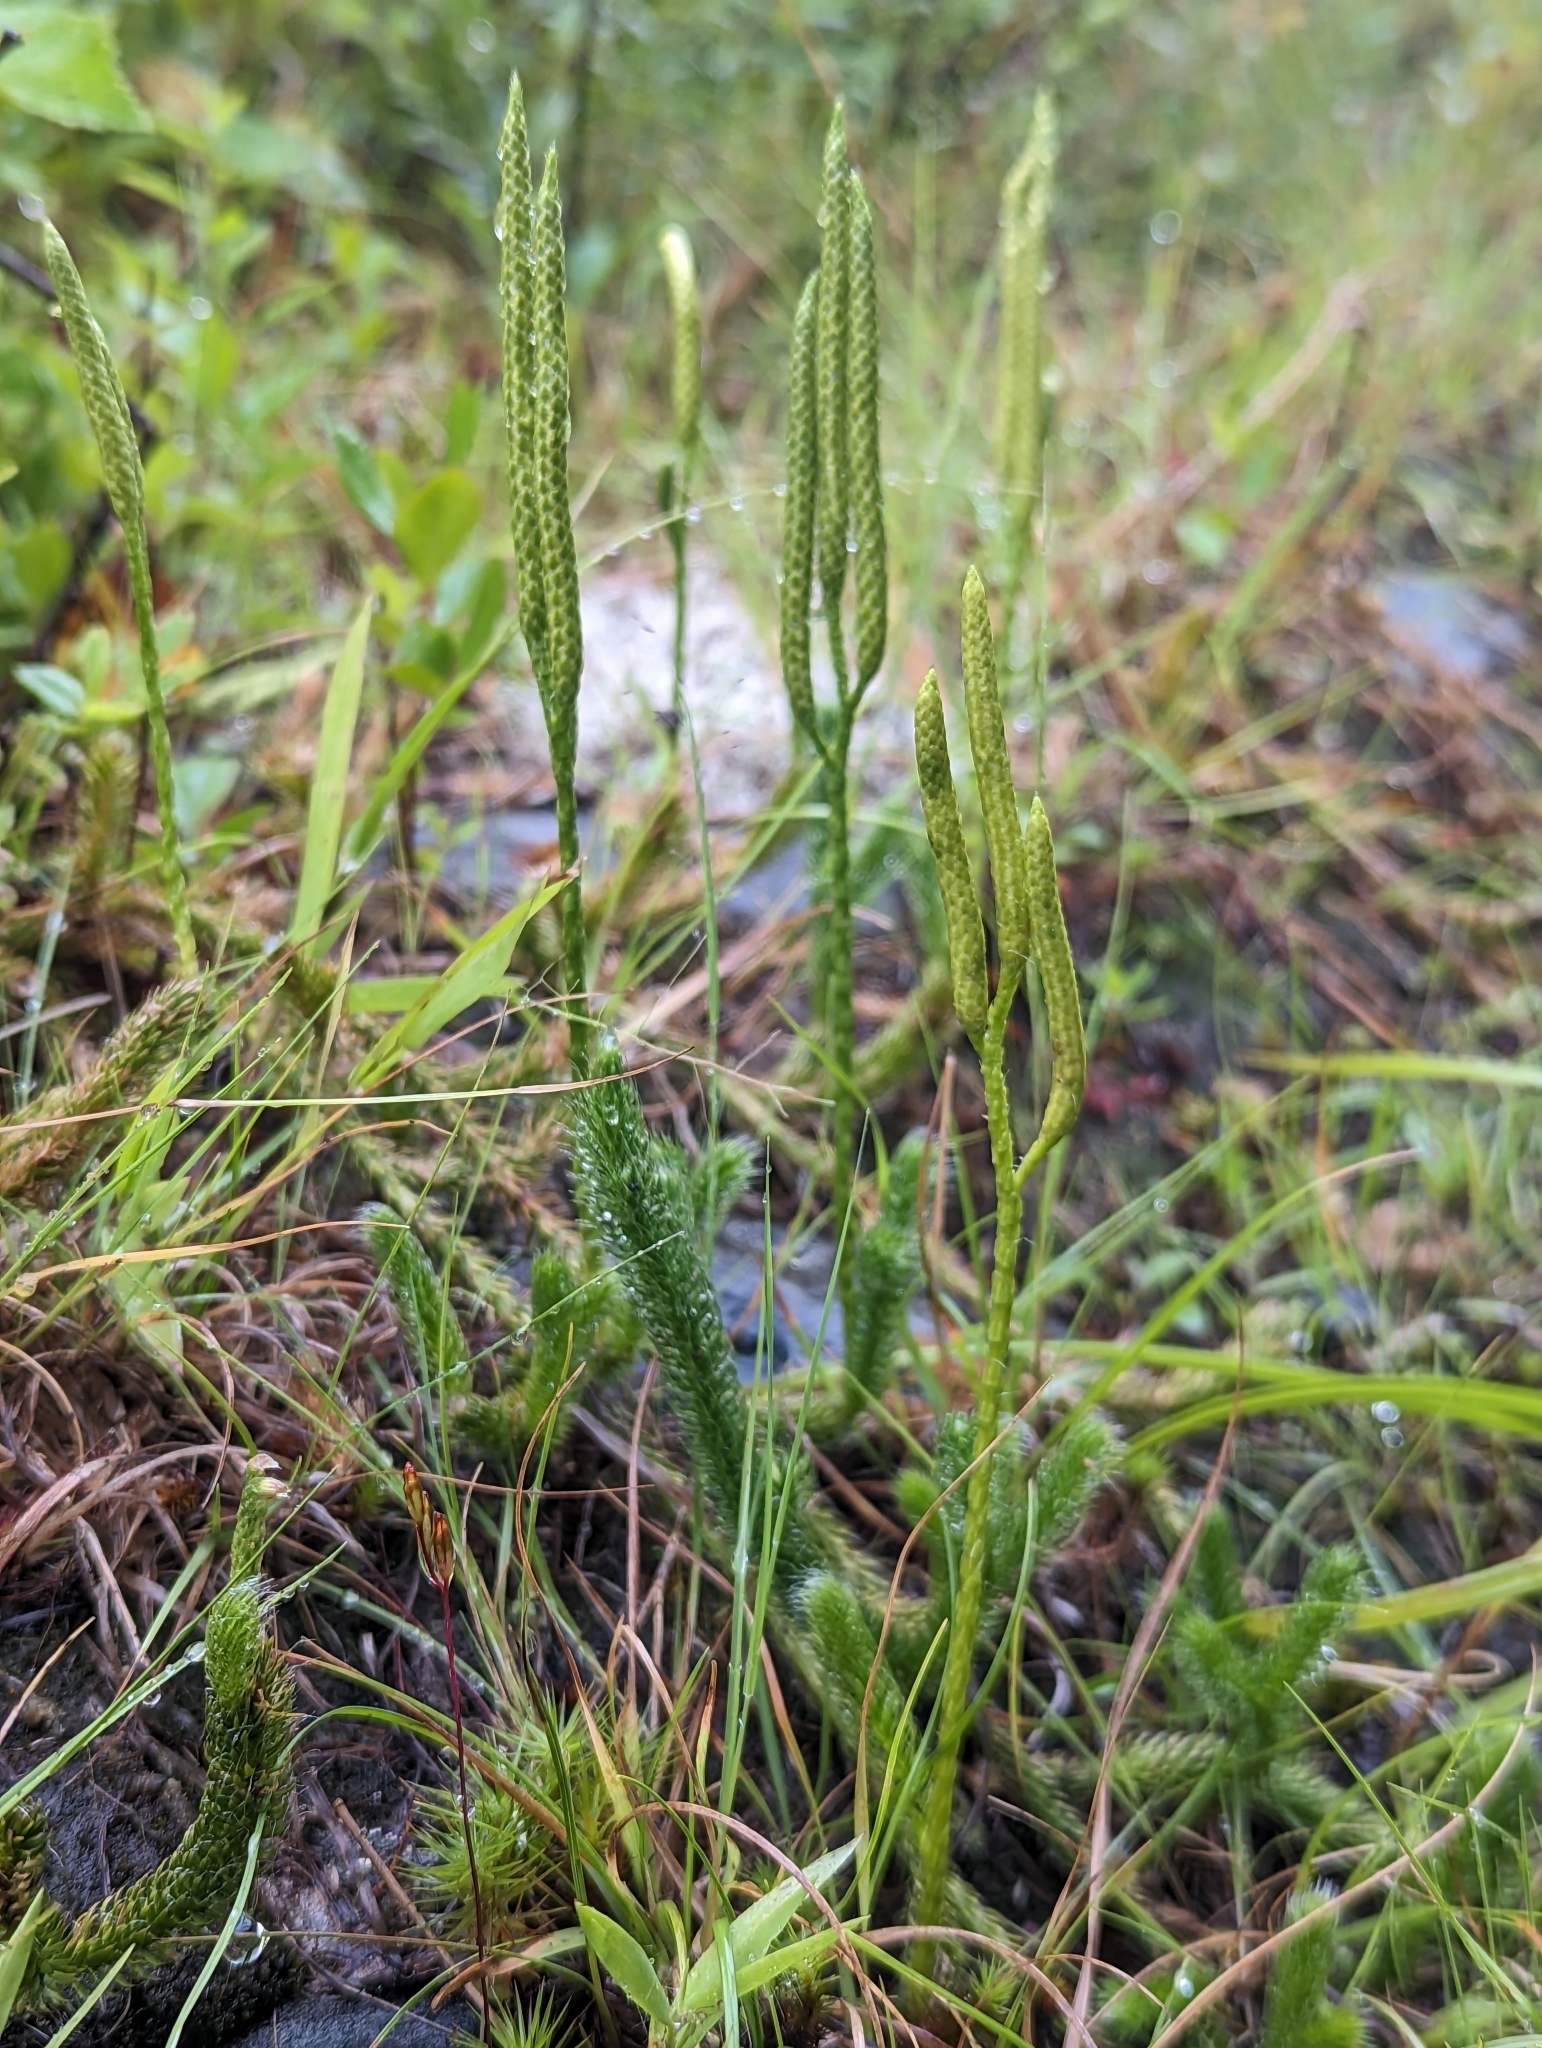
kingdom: Plantae
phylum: Tracheophyta
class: Lycopodiopsida
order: Lycopodiales
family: Lycopodiaceae
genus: Lycopodium
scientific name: Lycopodium clavatum
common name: Stag's-horn clubmoss
